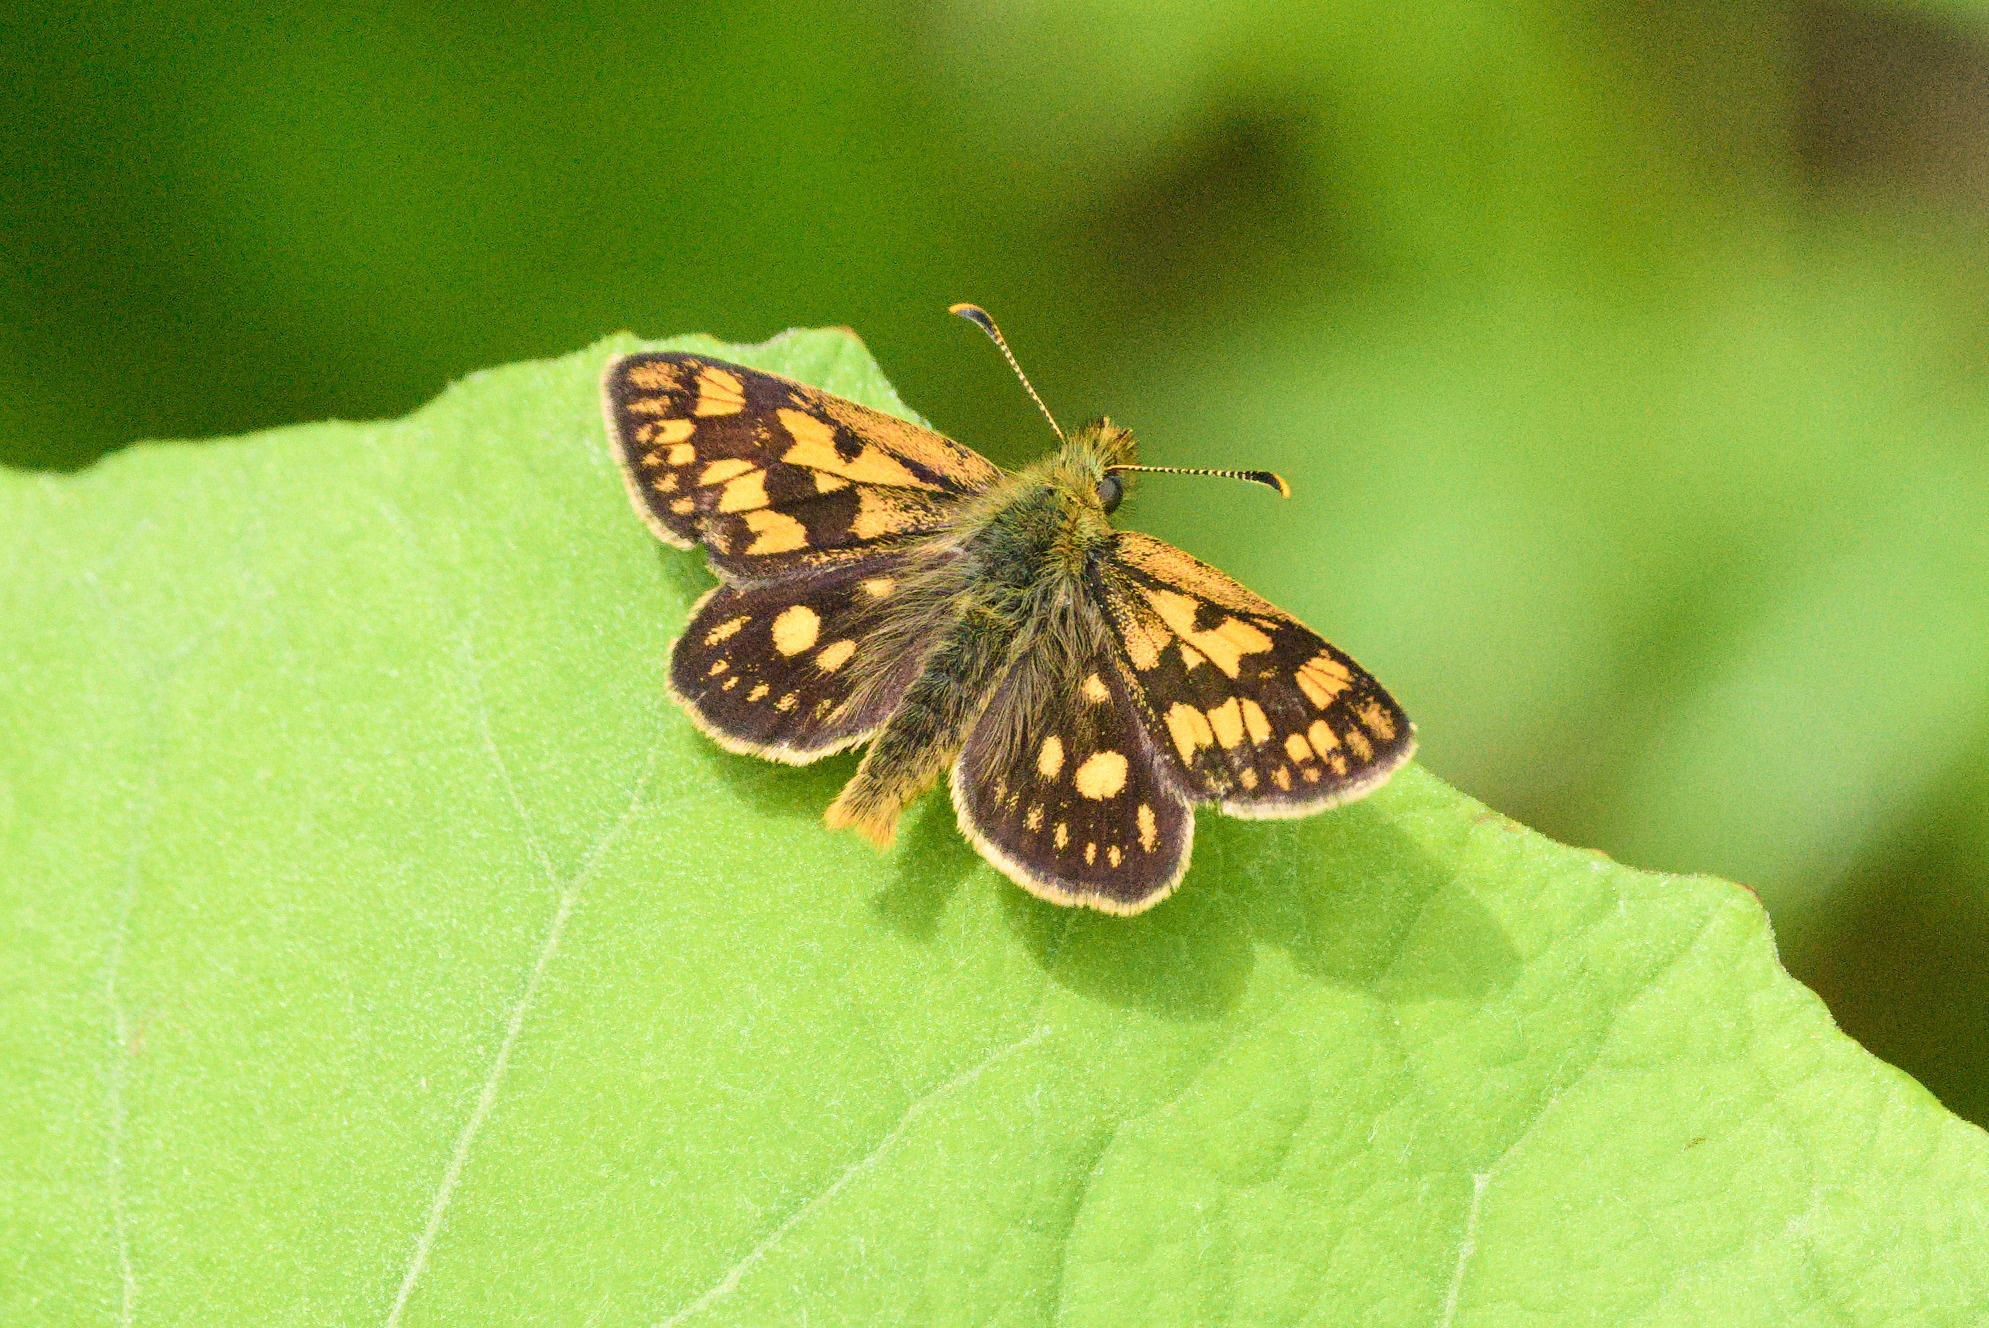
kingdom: Animalia
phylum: Arthropoda
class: Insecta
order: Lepidoptera
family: Hesperiidae
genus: Carterocephalus
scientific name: Carterocephalus palaemon
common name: Chequered skipper
